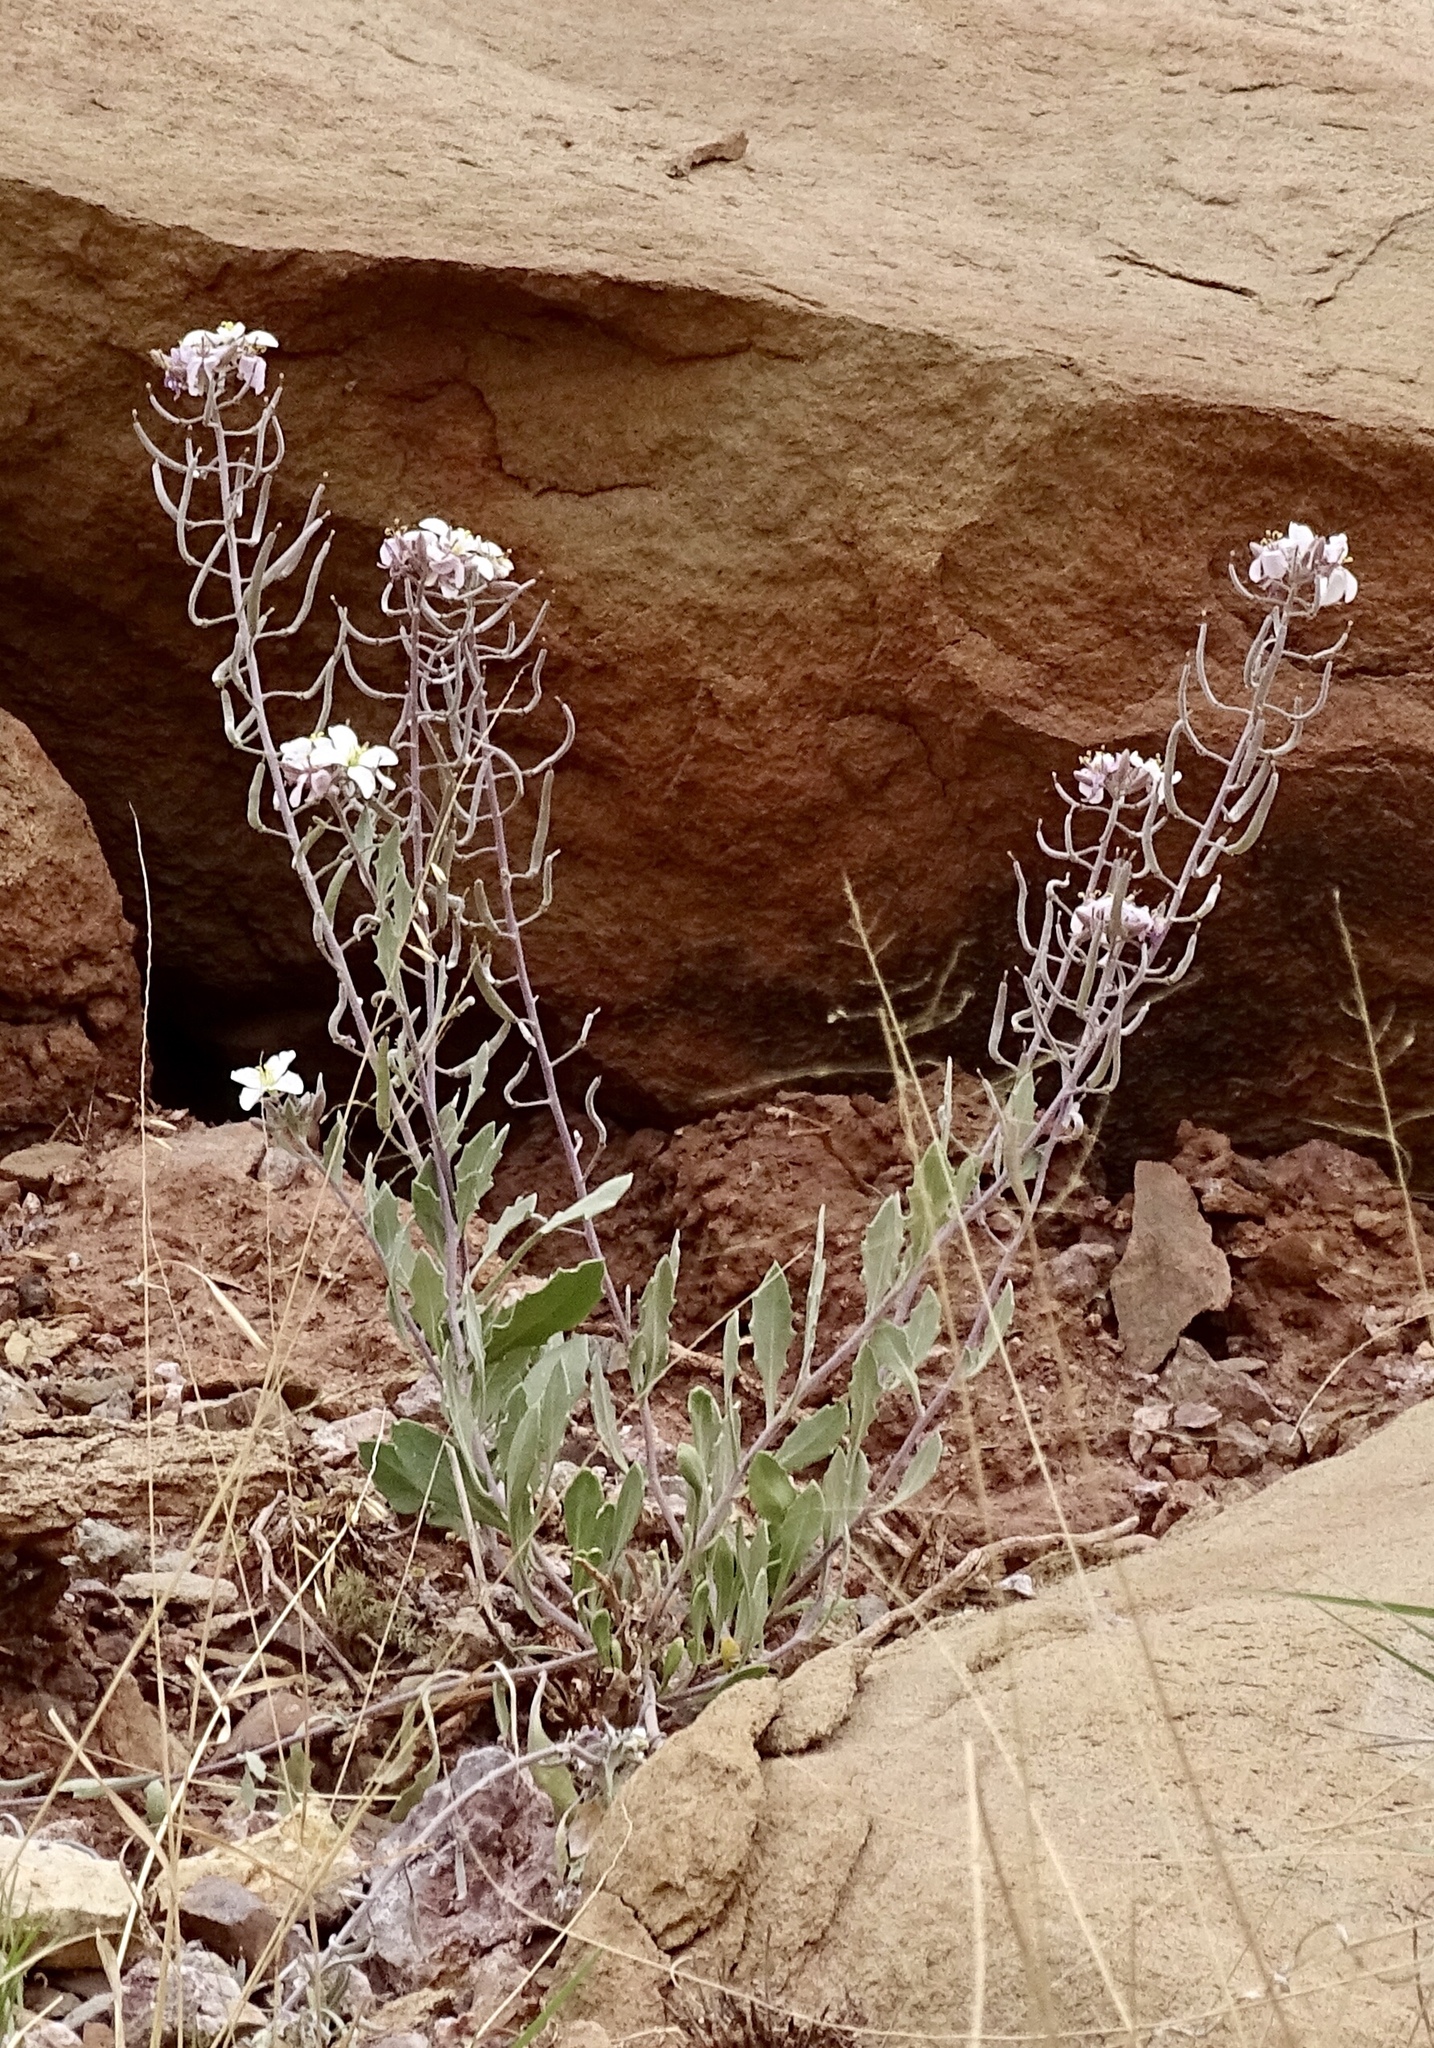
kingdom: Plantae
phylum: Tracheophyta
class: Magnoliopsida
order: Brassicales
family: Brassicaceae
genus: Nerisyrenia
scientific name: Nerisyrenia camporum
